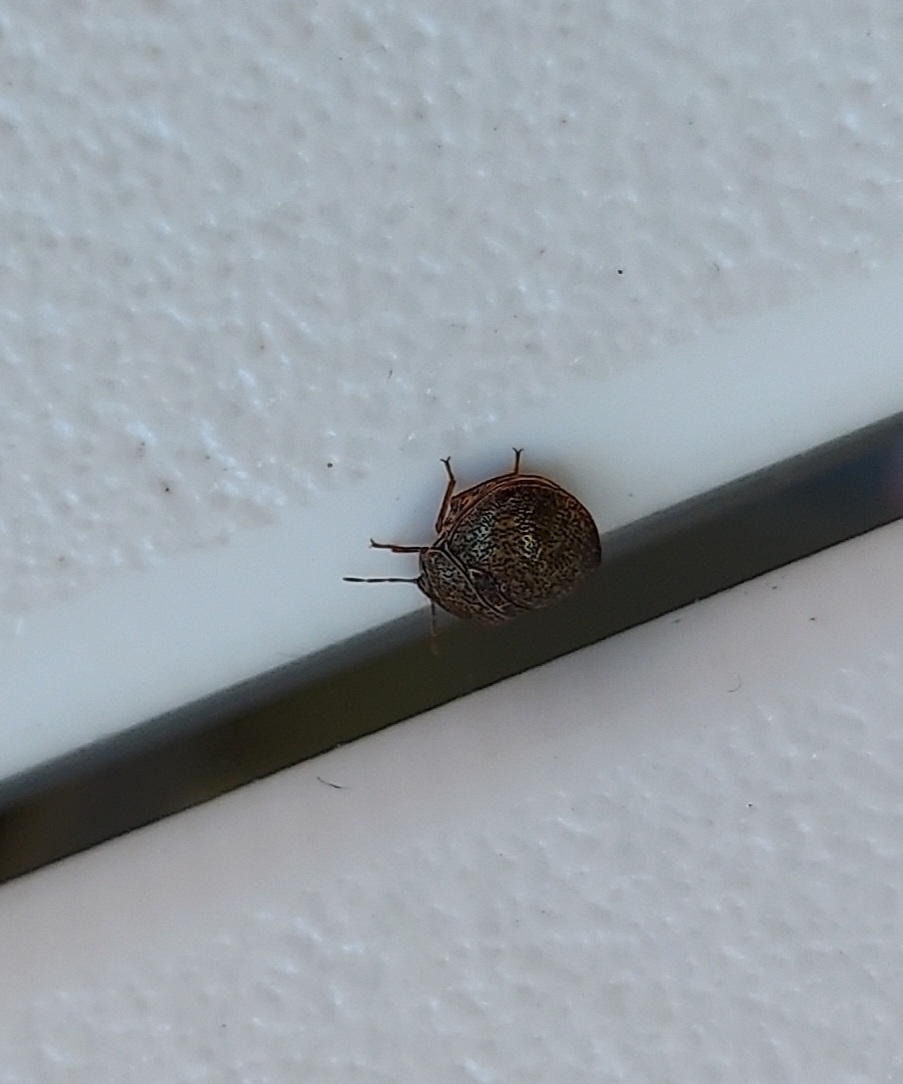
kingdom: Animalia
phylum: Arthropoda
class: Insecta
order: Hemiptera
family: Plataspidae
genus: Megacopta
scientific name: Megacopta cribraria
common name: Bean plataspid
